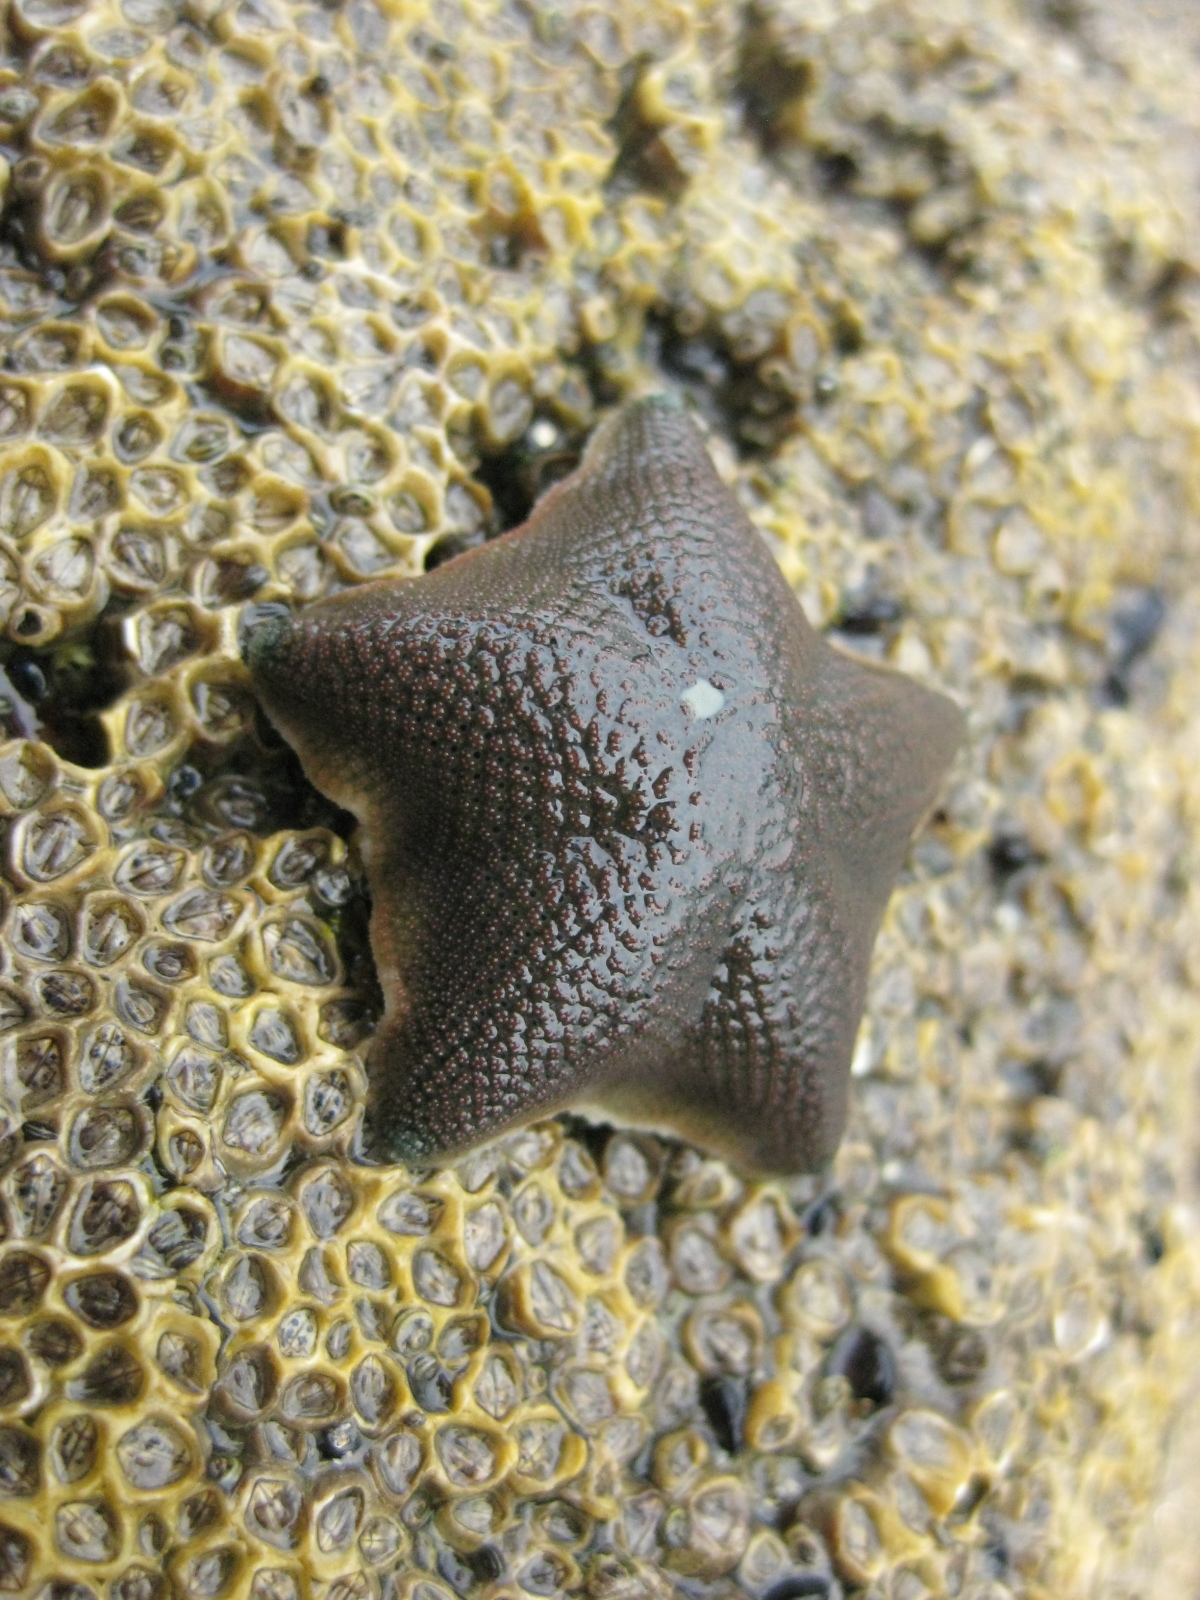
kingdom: Animalia
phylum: Echinodermata
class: Asteroidea
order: Valvatida
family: Asterinidae
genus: Patiriella
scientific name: Patiriella regularis
